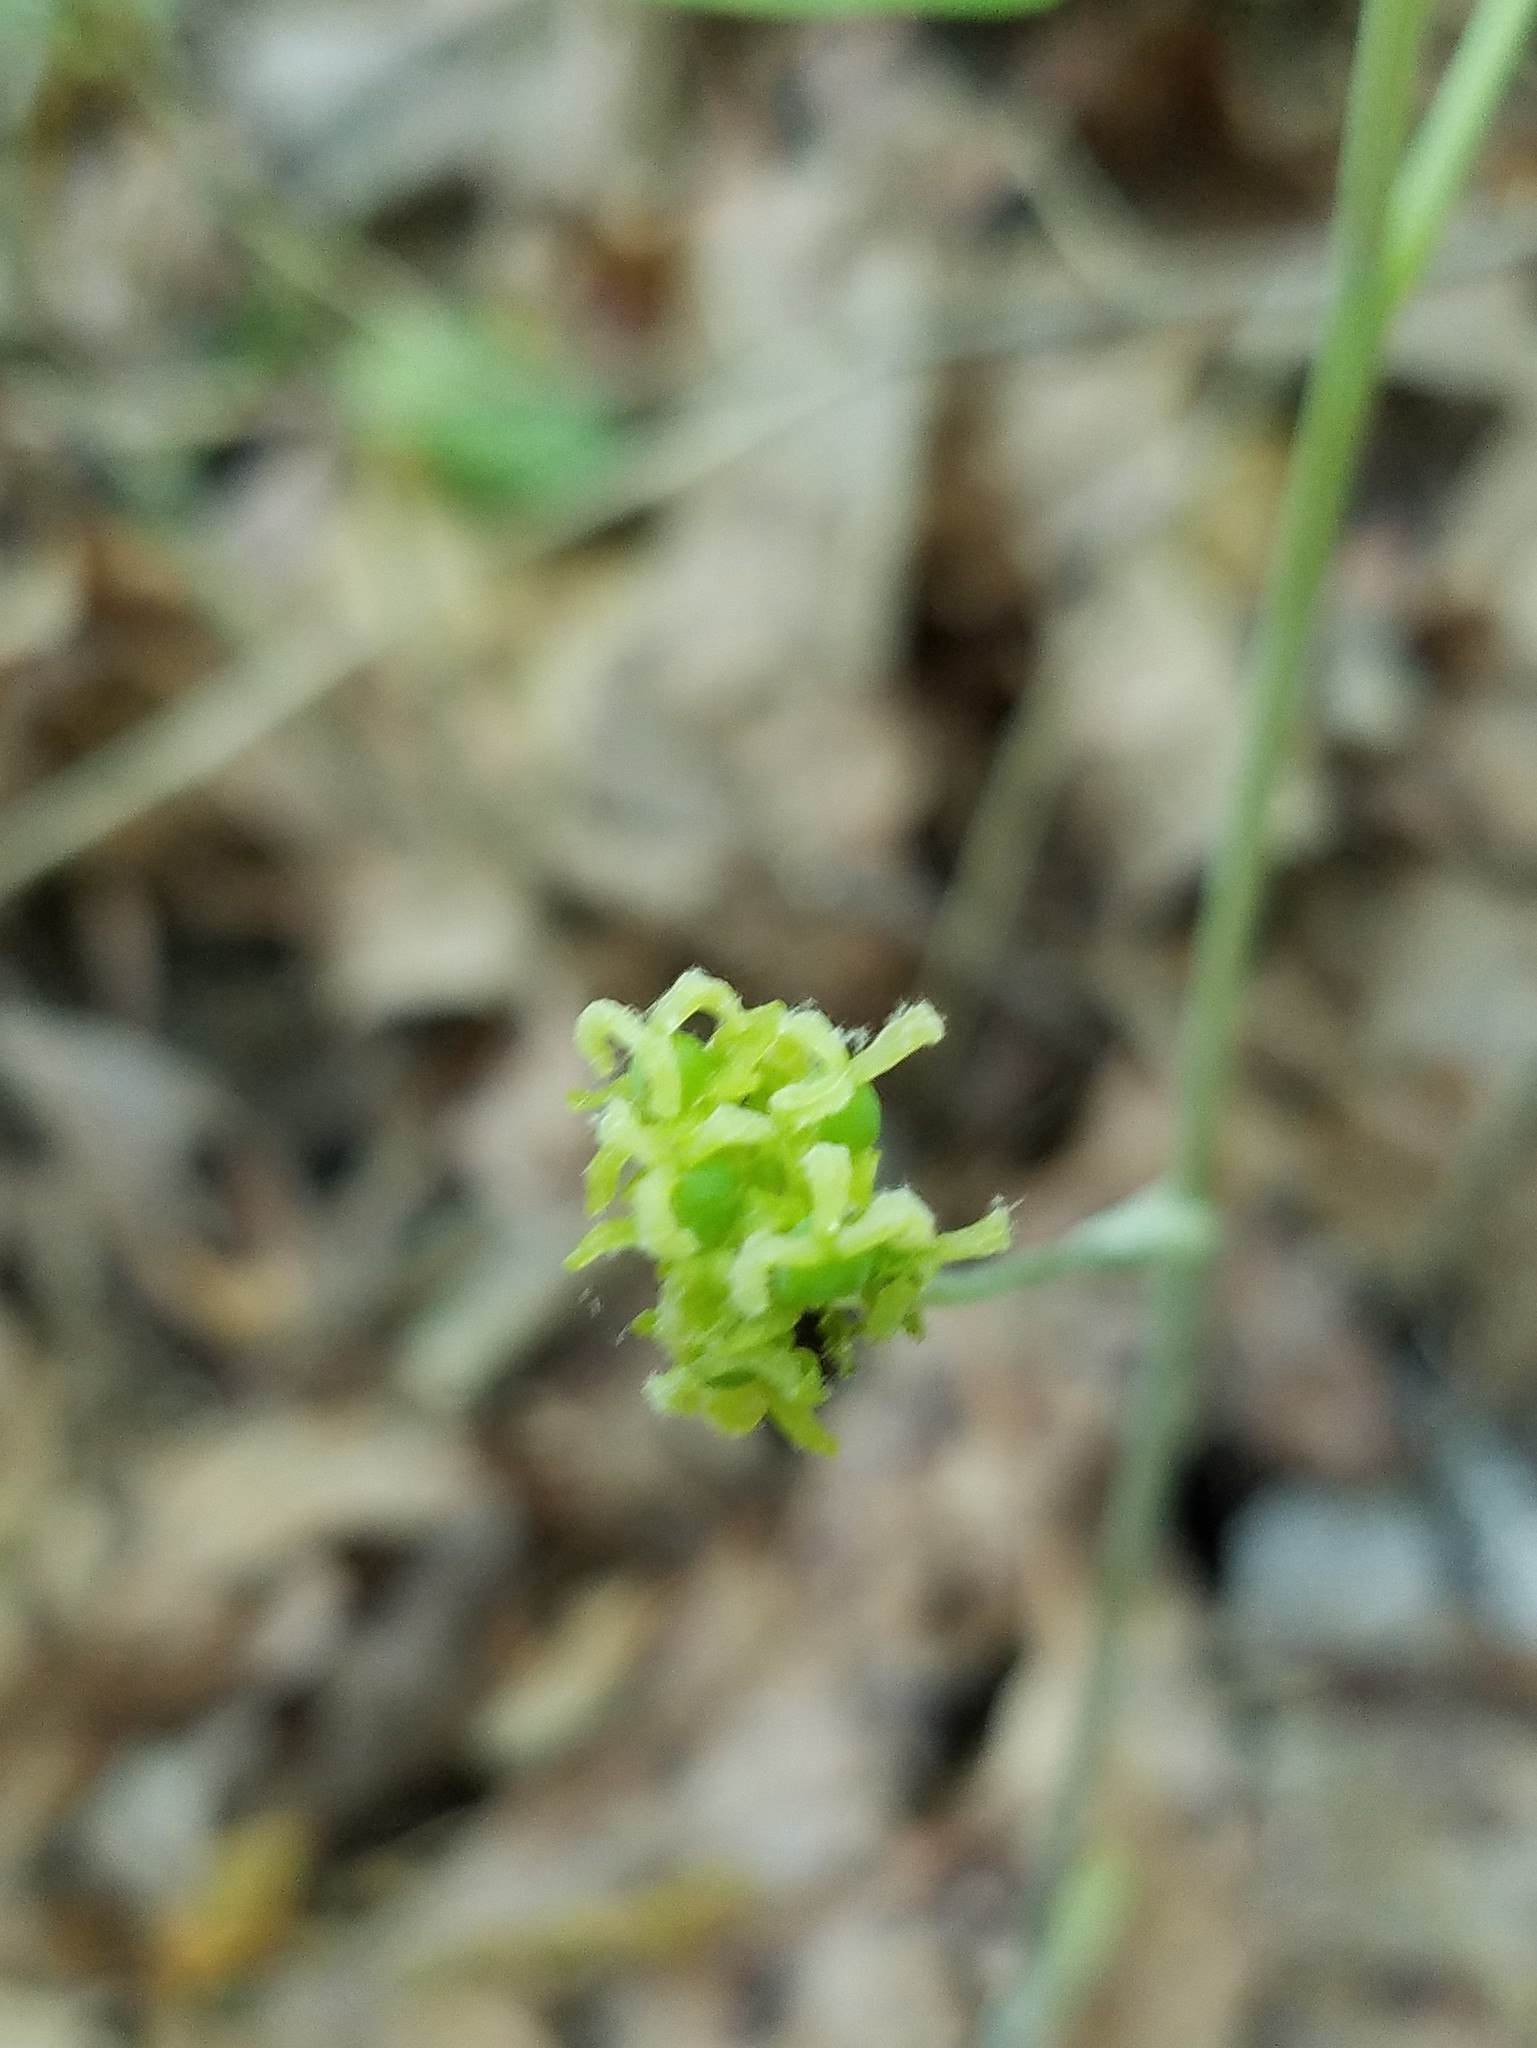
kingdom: Plantae
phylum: Tracheophyta
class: Liliopsida
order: Liliales
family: Smilacaceae
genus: Smilax
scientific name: Smilax hugeri
